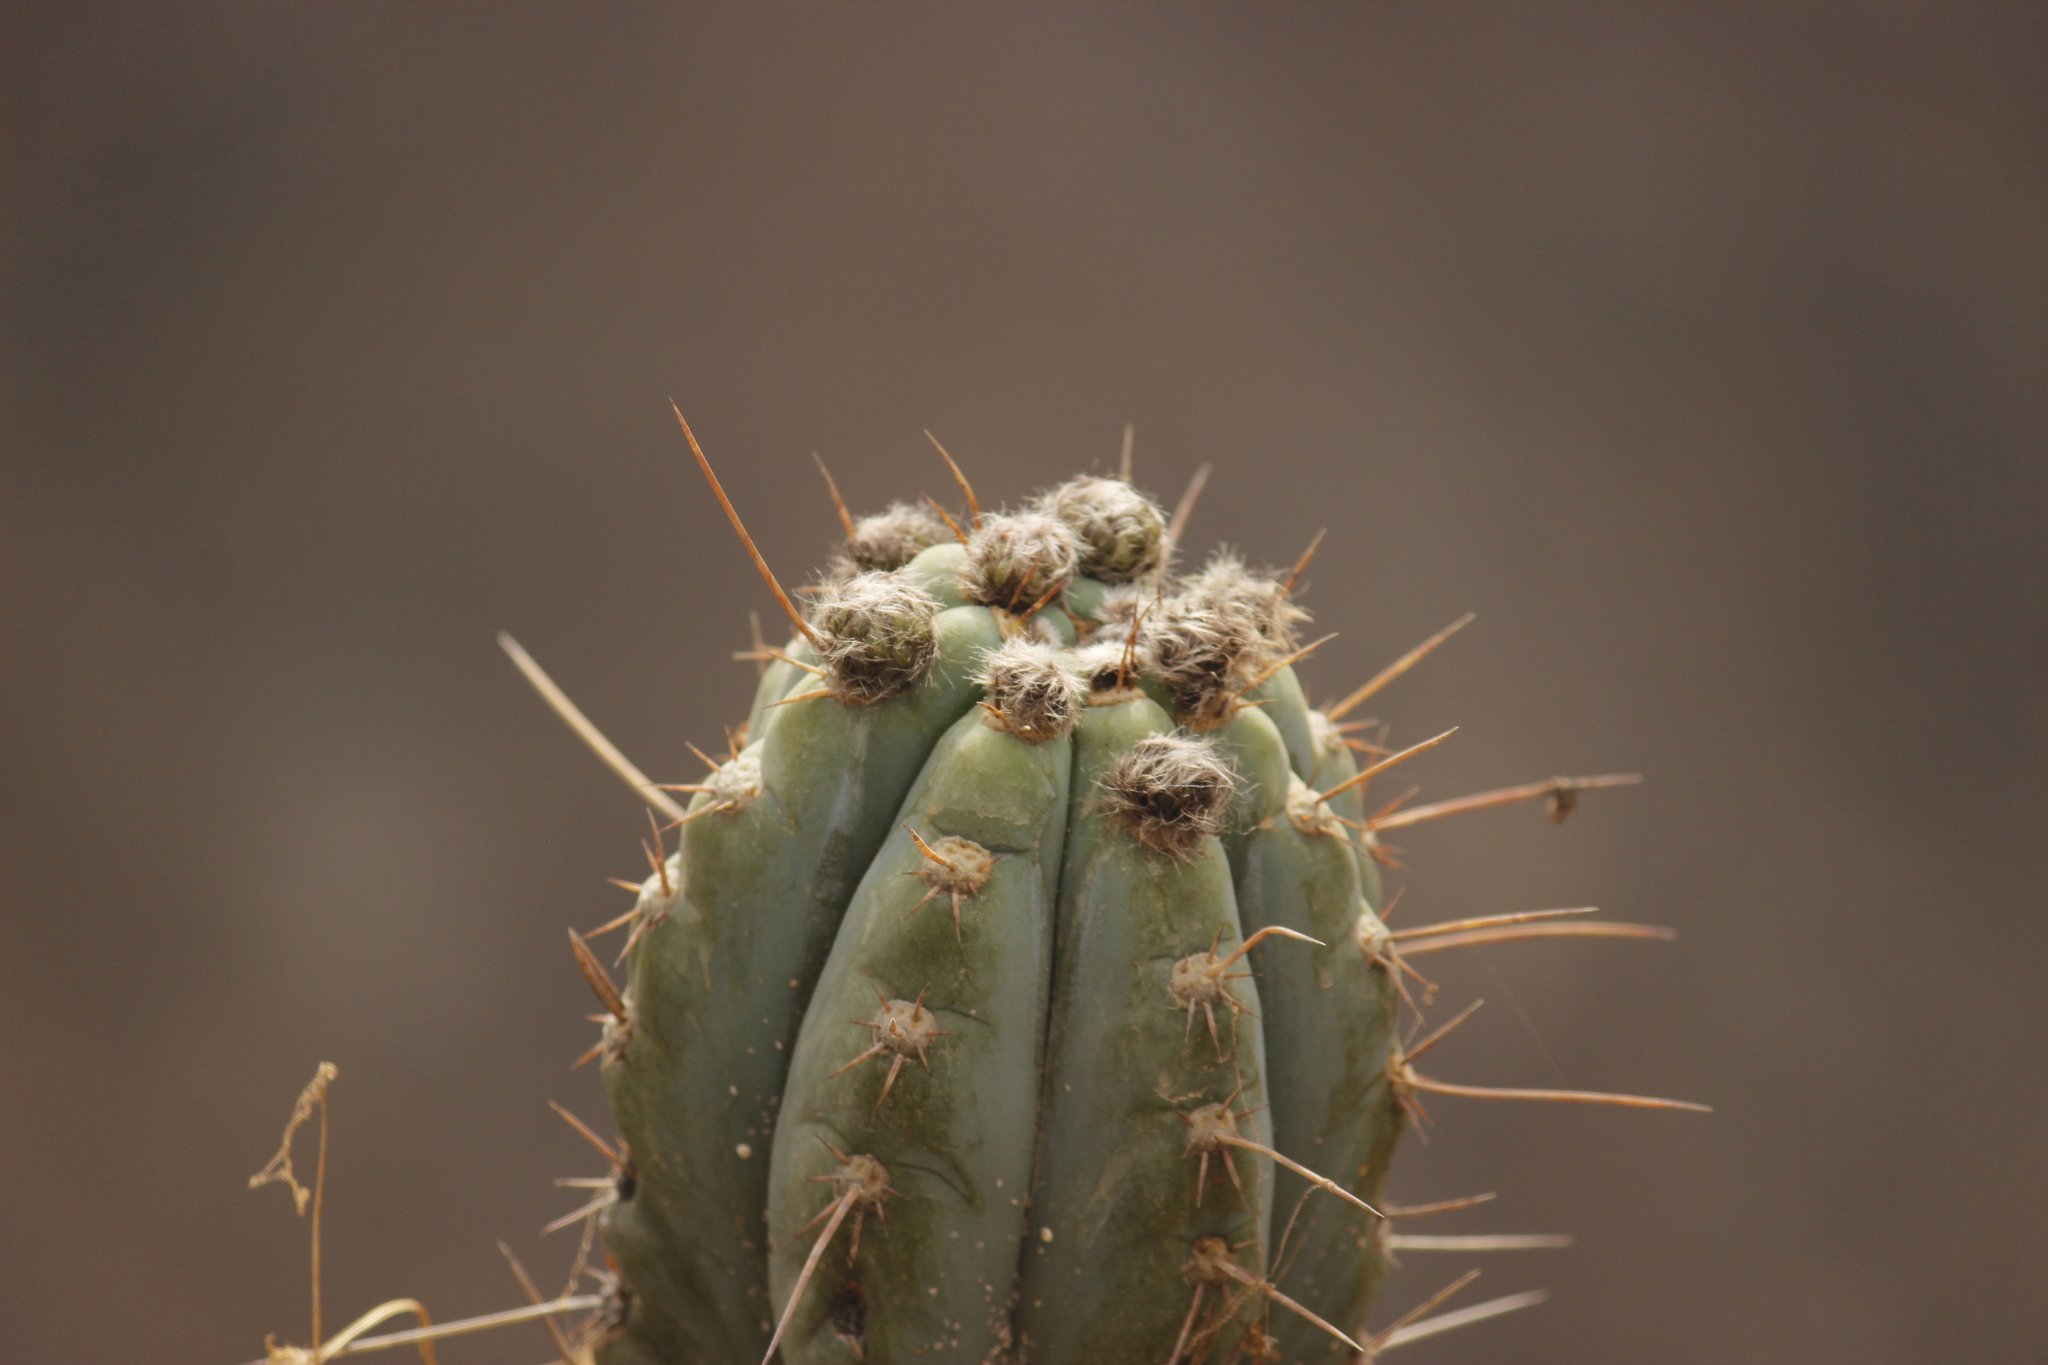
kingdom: Plantae
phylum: Tracheophyta
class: Magnoliopsida
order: Caryophyllales
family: Cactaceae
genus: Trichocereus
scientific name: Trichocereus macrogonus
